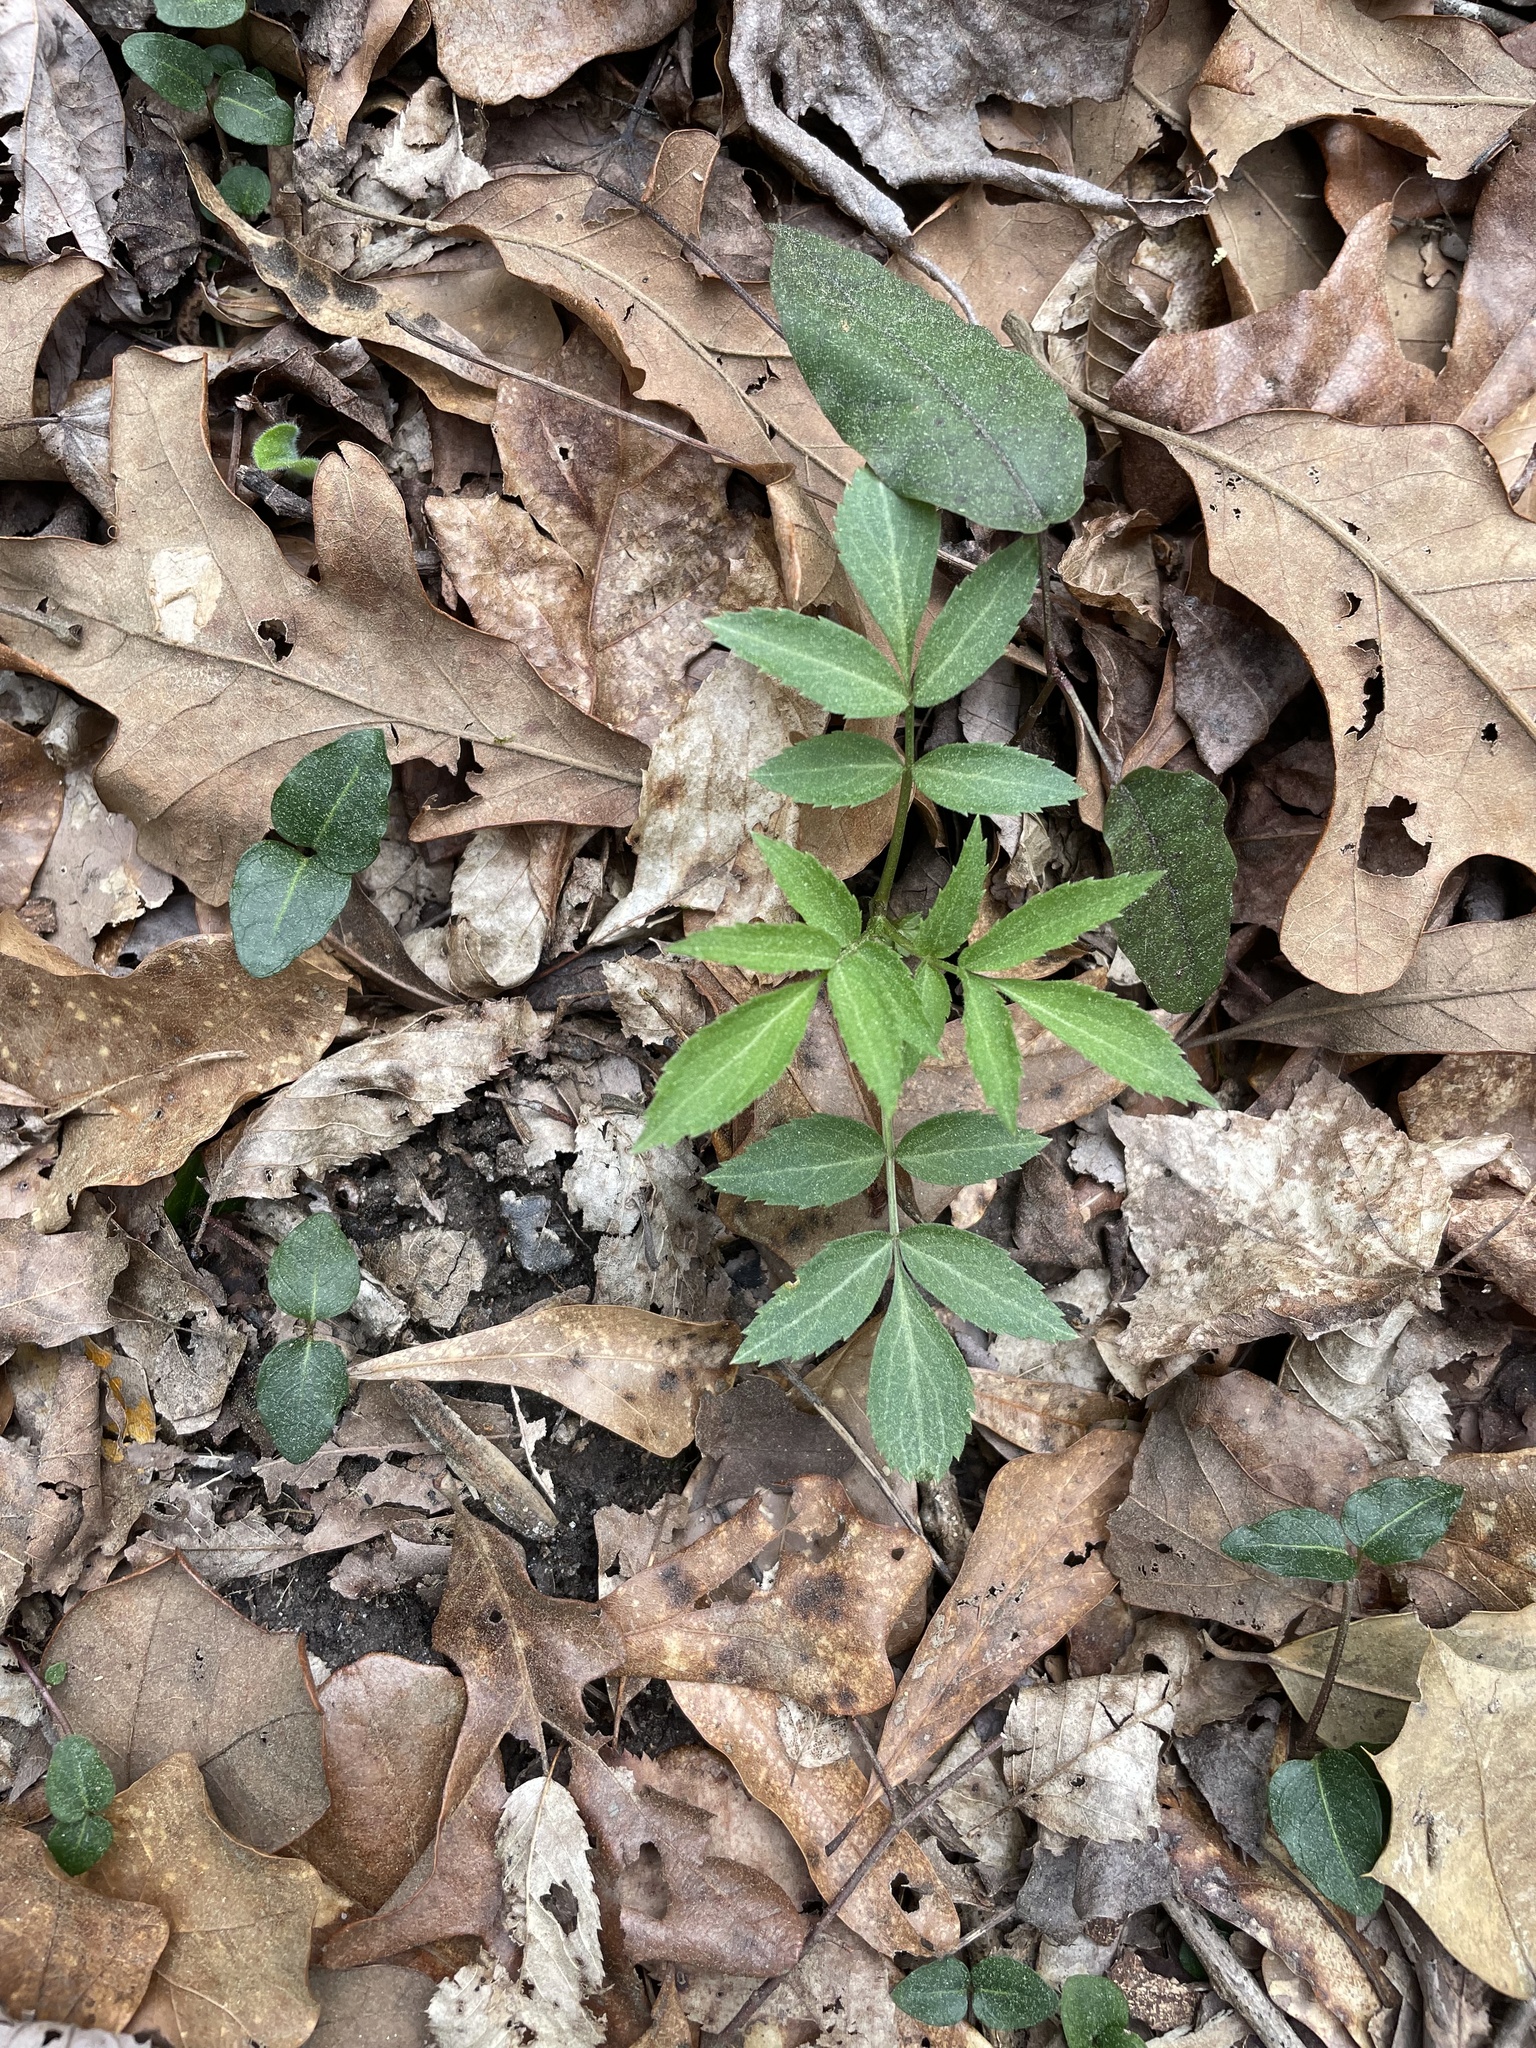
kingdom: Plantae
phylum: Tracheophyta
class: Magnoliopsida
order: Dipsacales
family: Viburnaceae
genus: Sambucus
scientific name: Sambucus canadensis
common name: American elder
